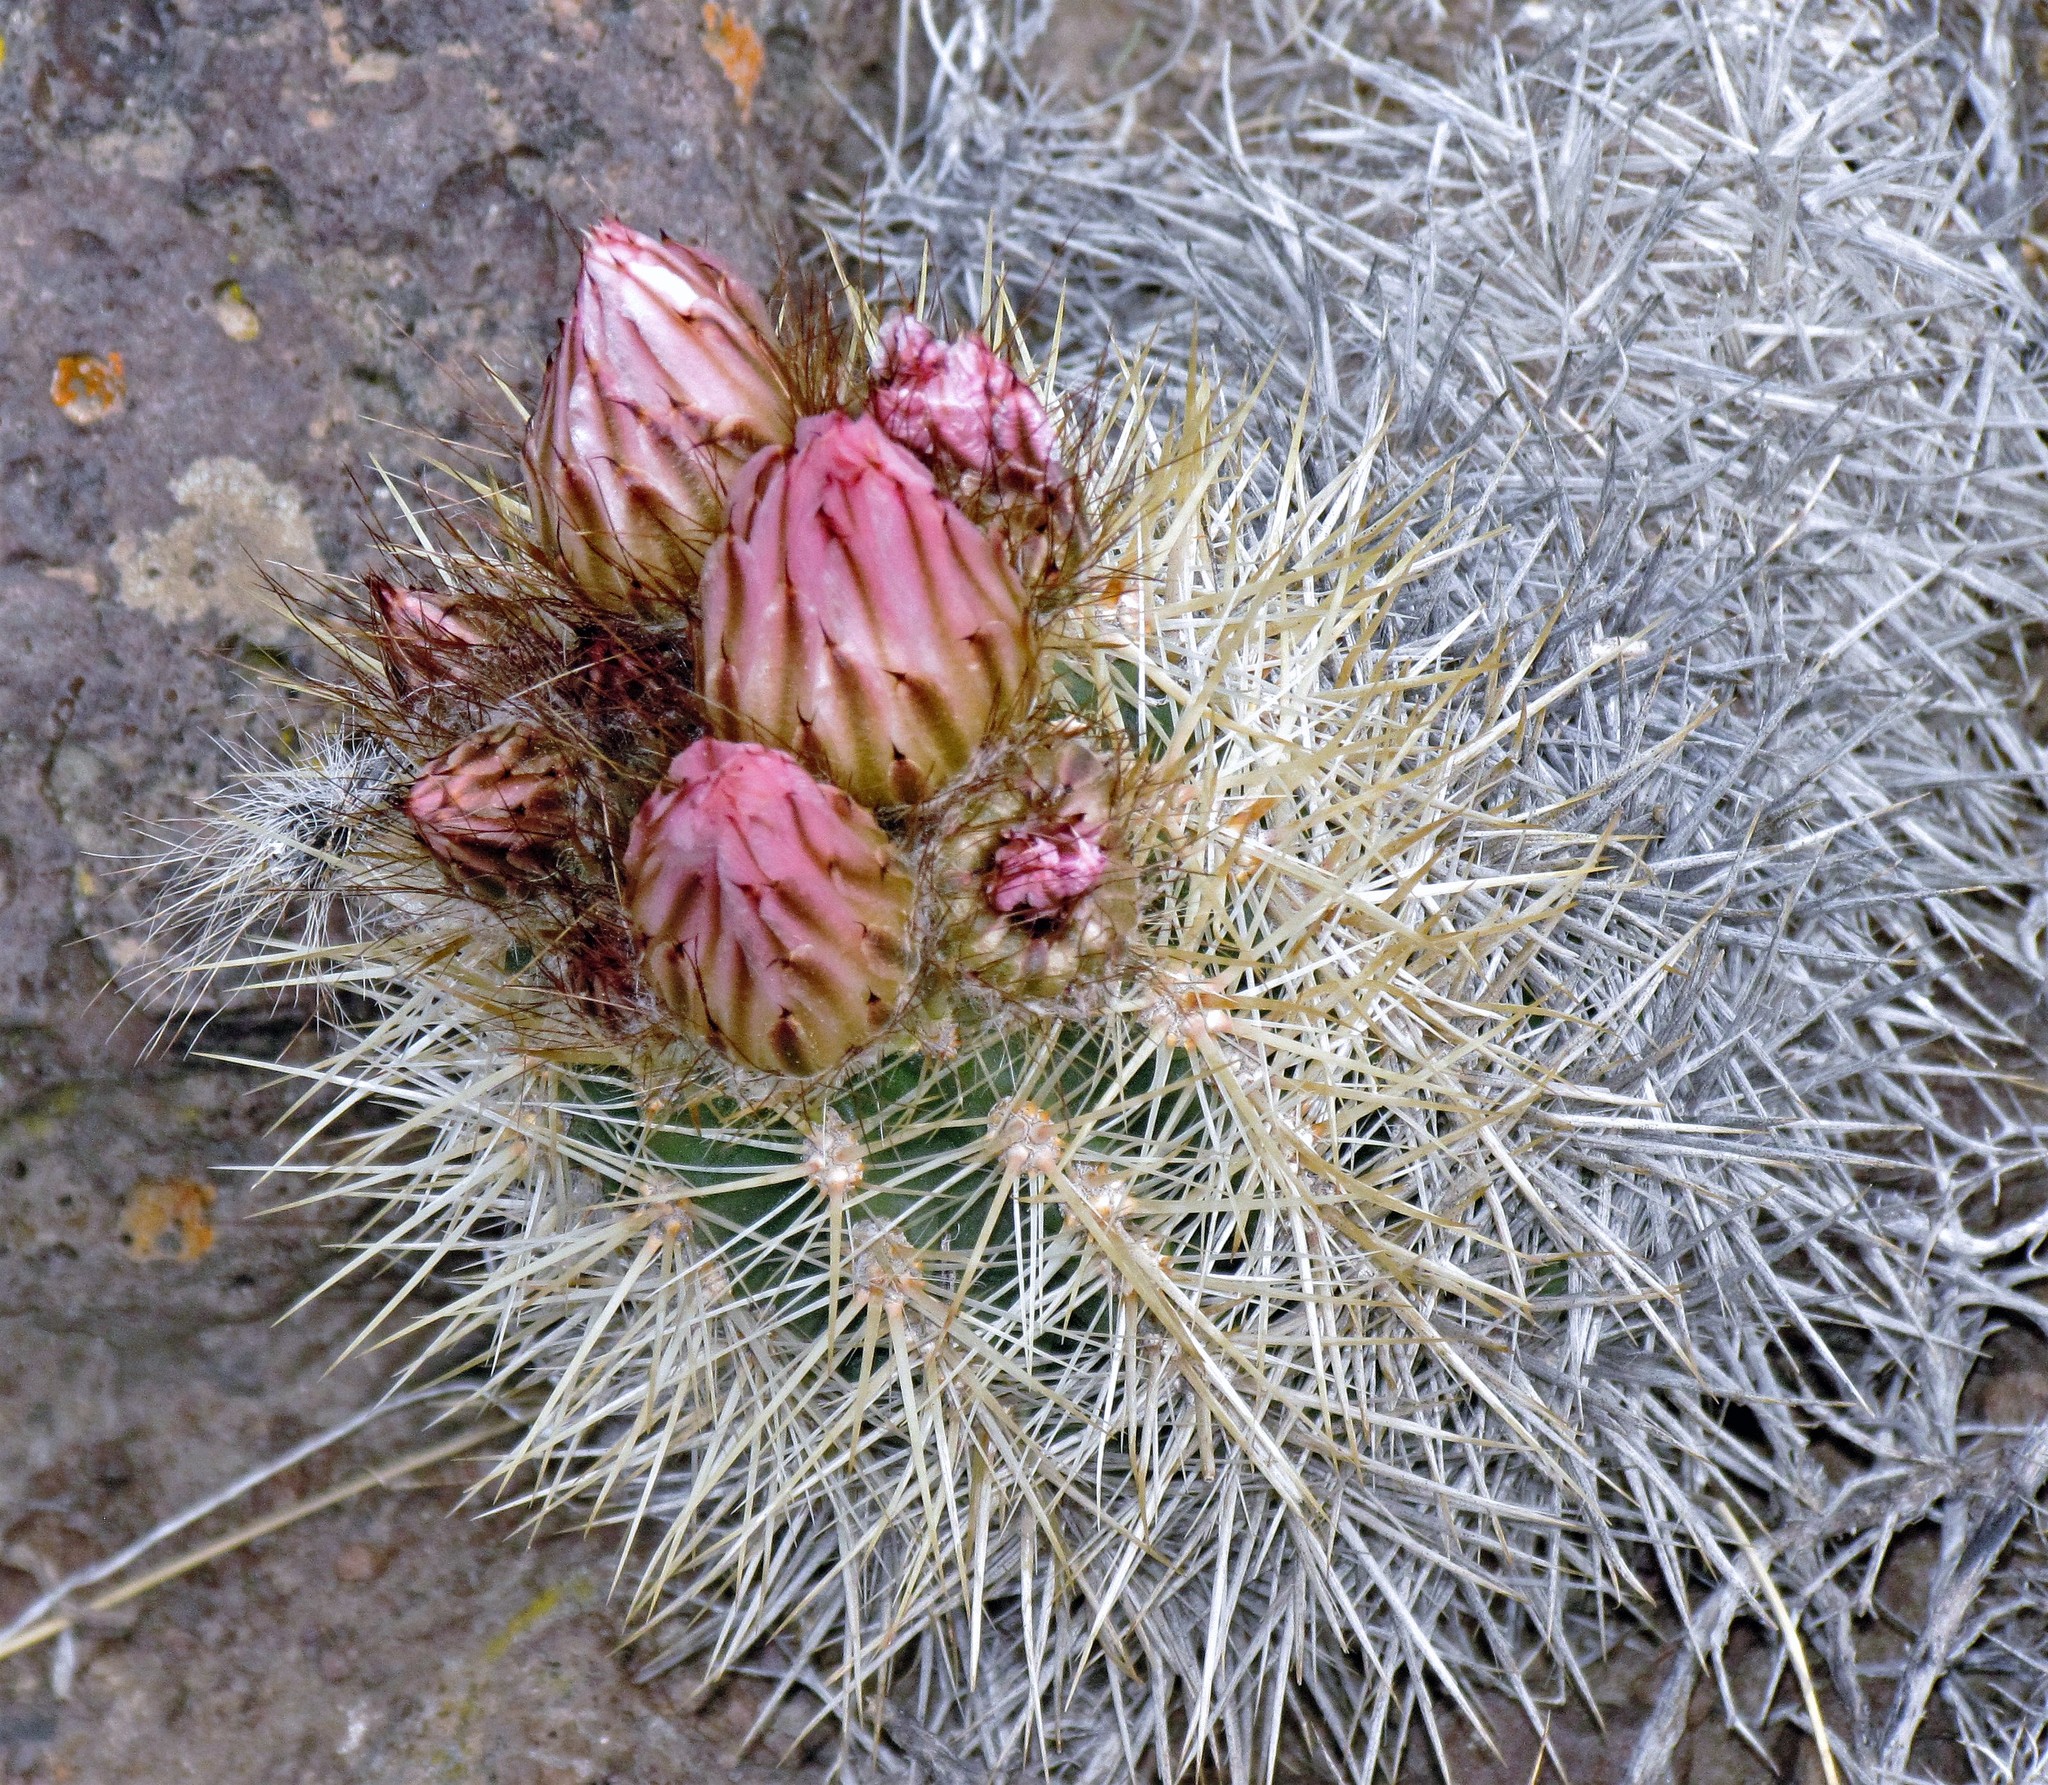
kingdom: Plantae
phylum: Tracheophyta
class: Magnoliopsida
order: Caryophyllales
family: Cactaceae
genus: Austrocactus
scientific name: Austrocactus bertinii
